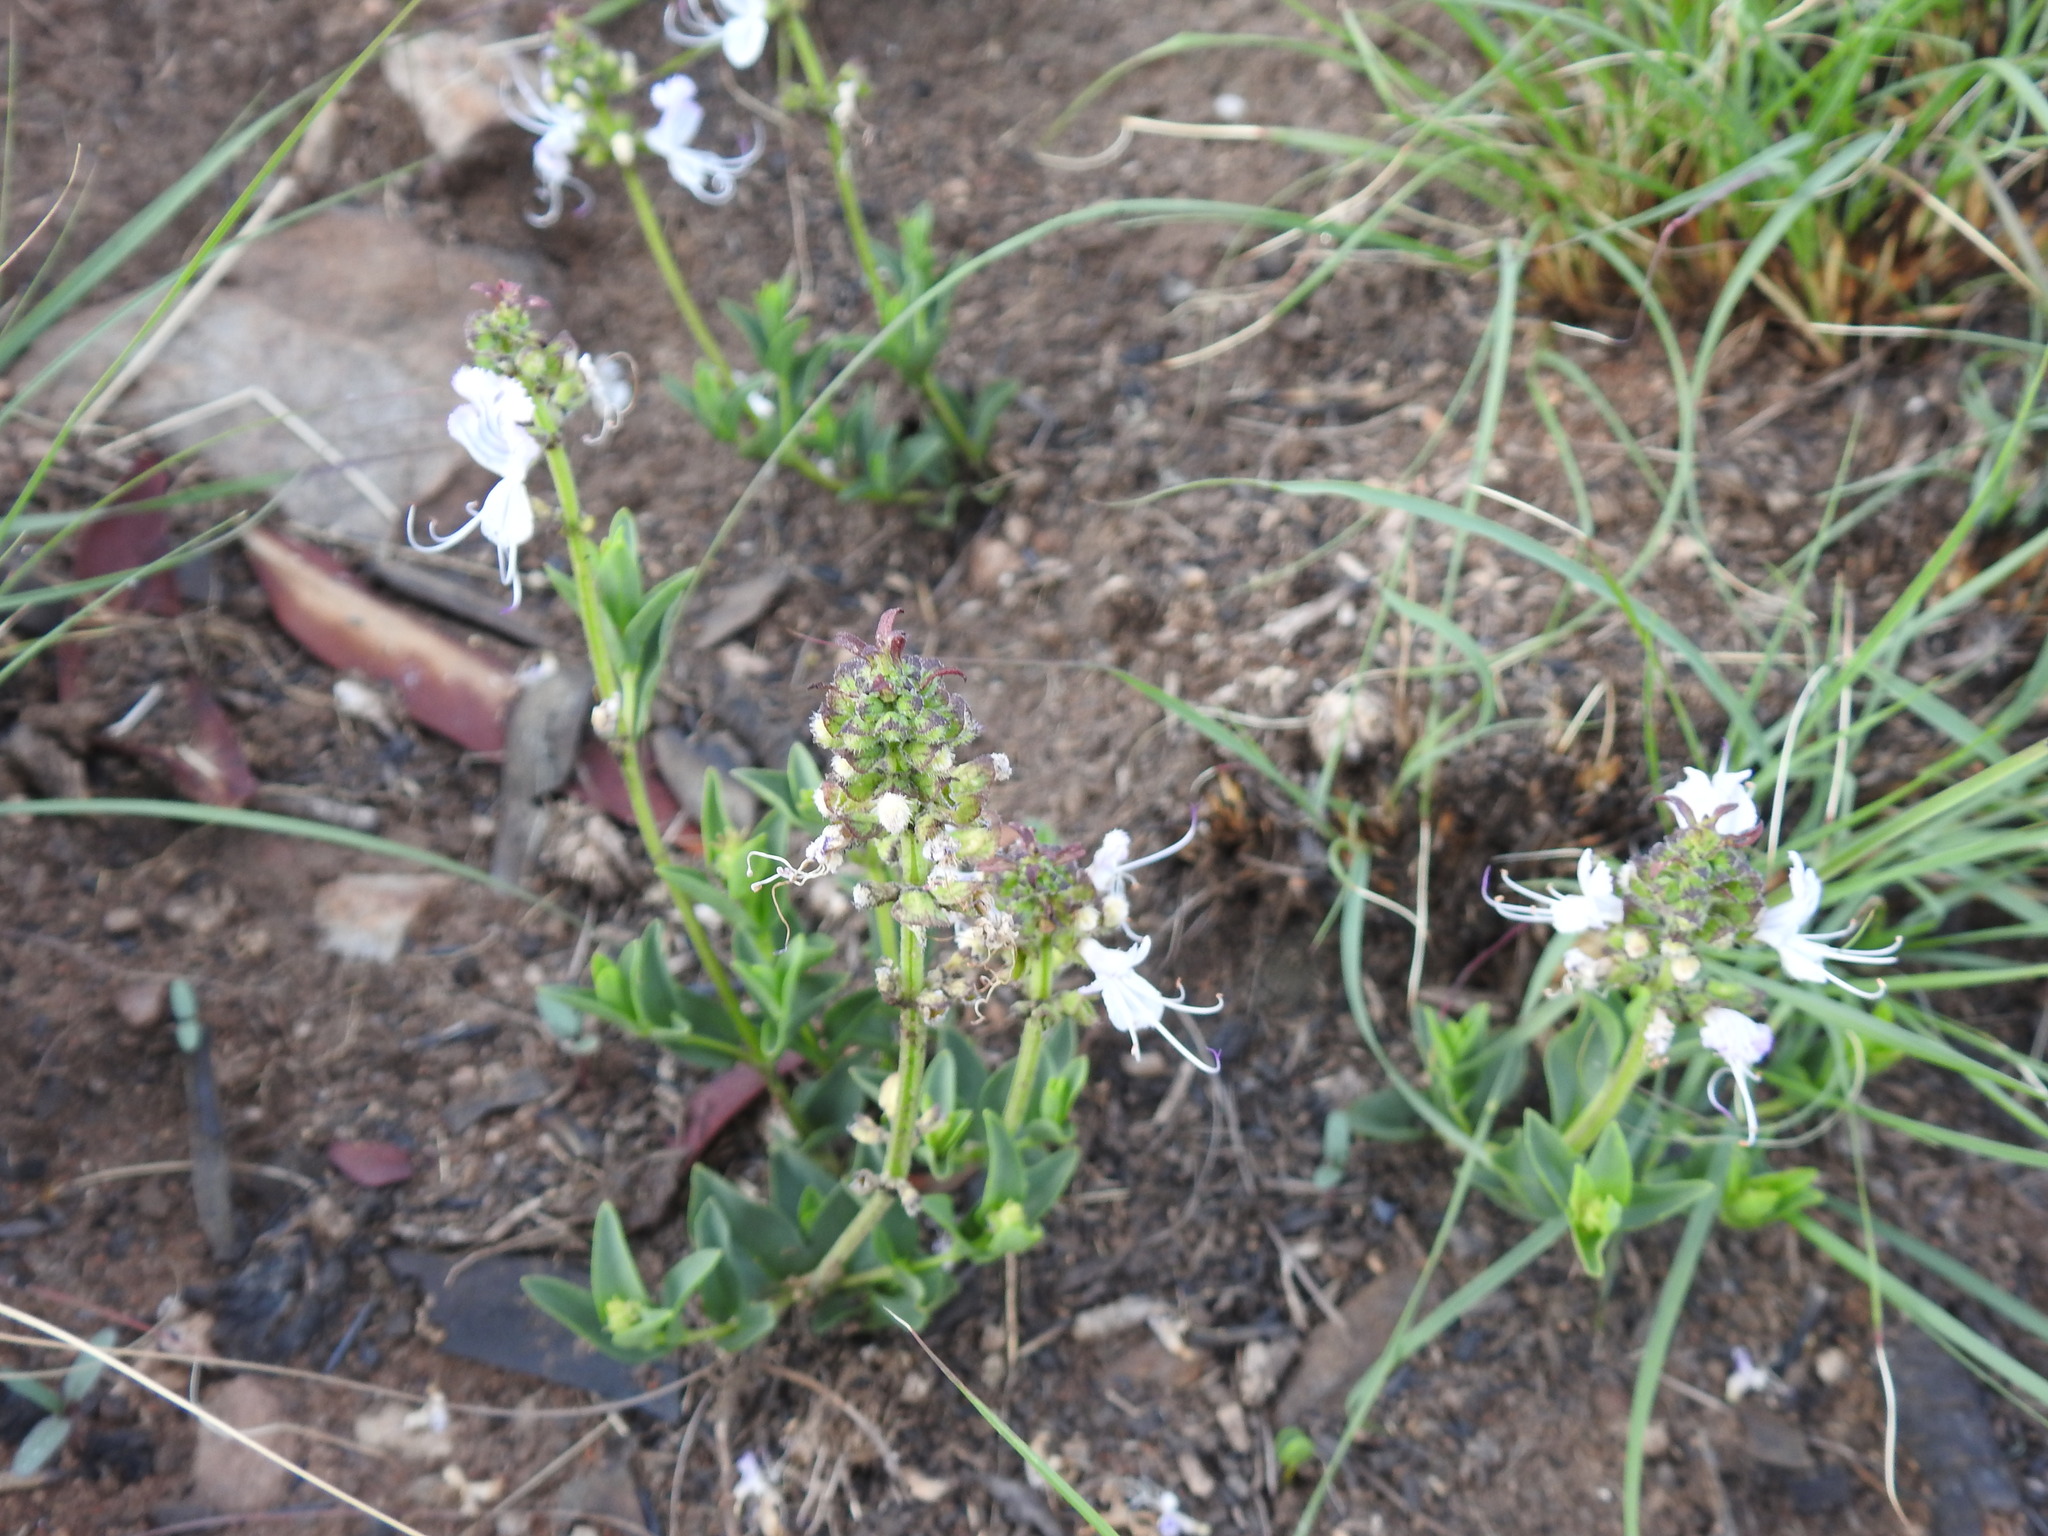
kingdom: Plantae
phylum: Tracheophyta
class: Magnoliopsida
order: Lamiales
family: Lamiaceae
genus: Ocimum
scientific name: Ocimum obovatum
